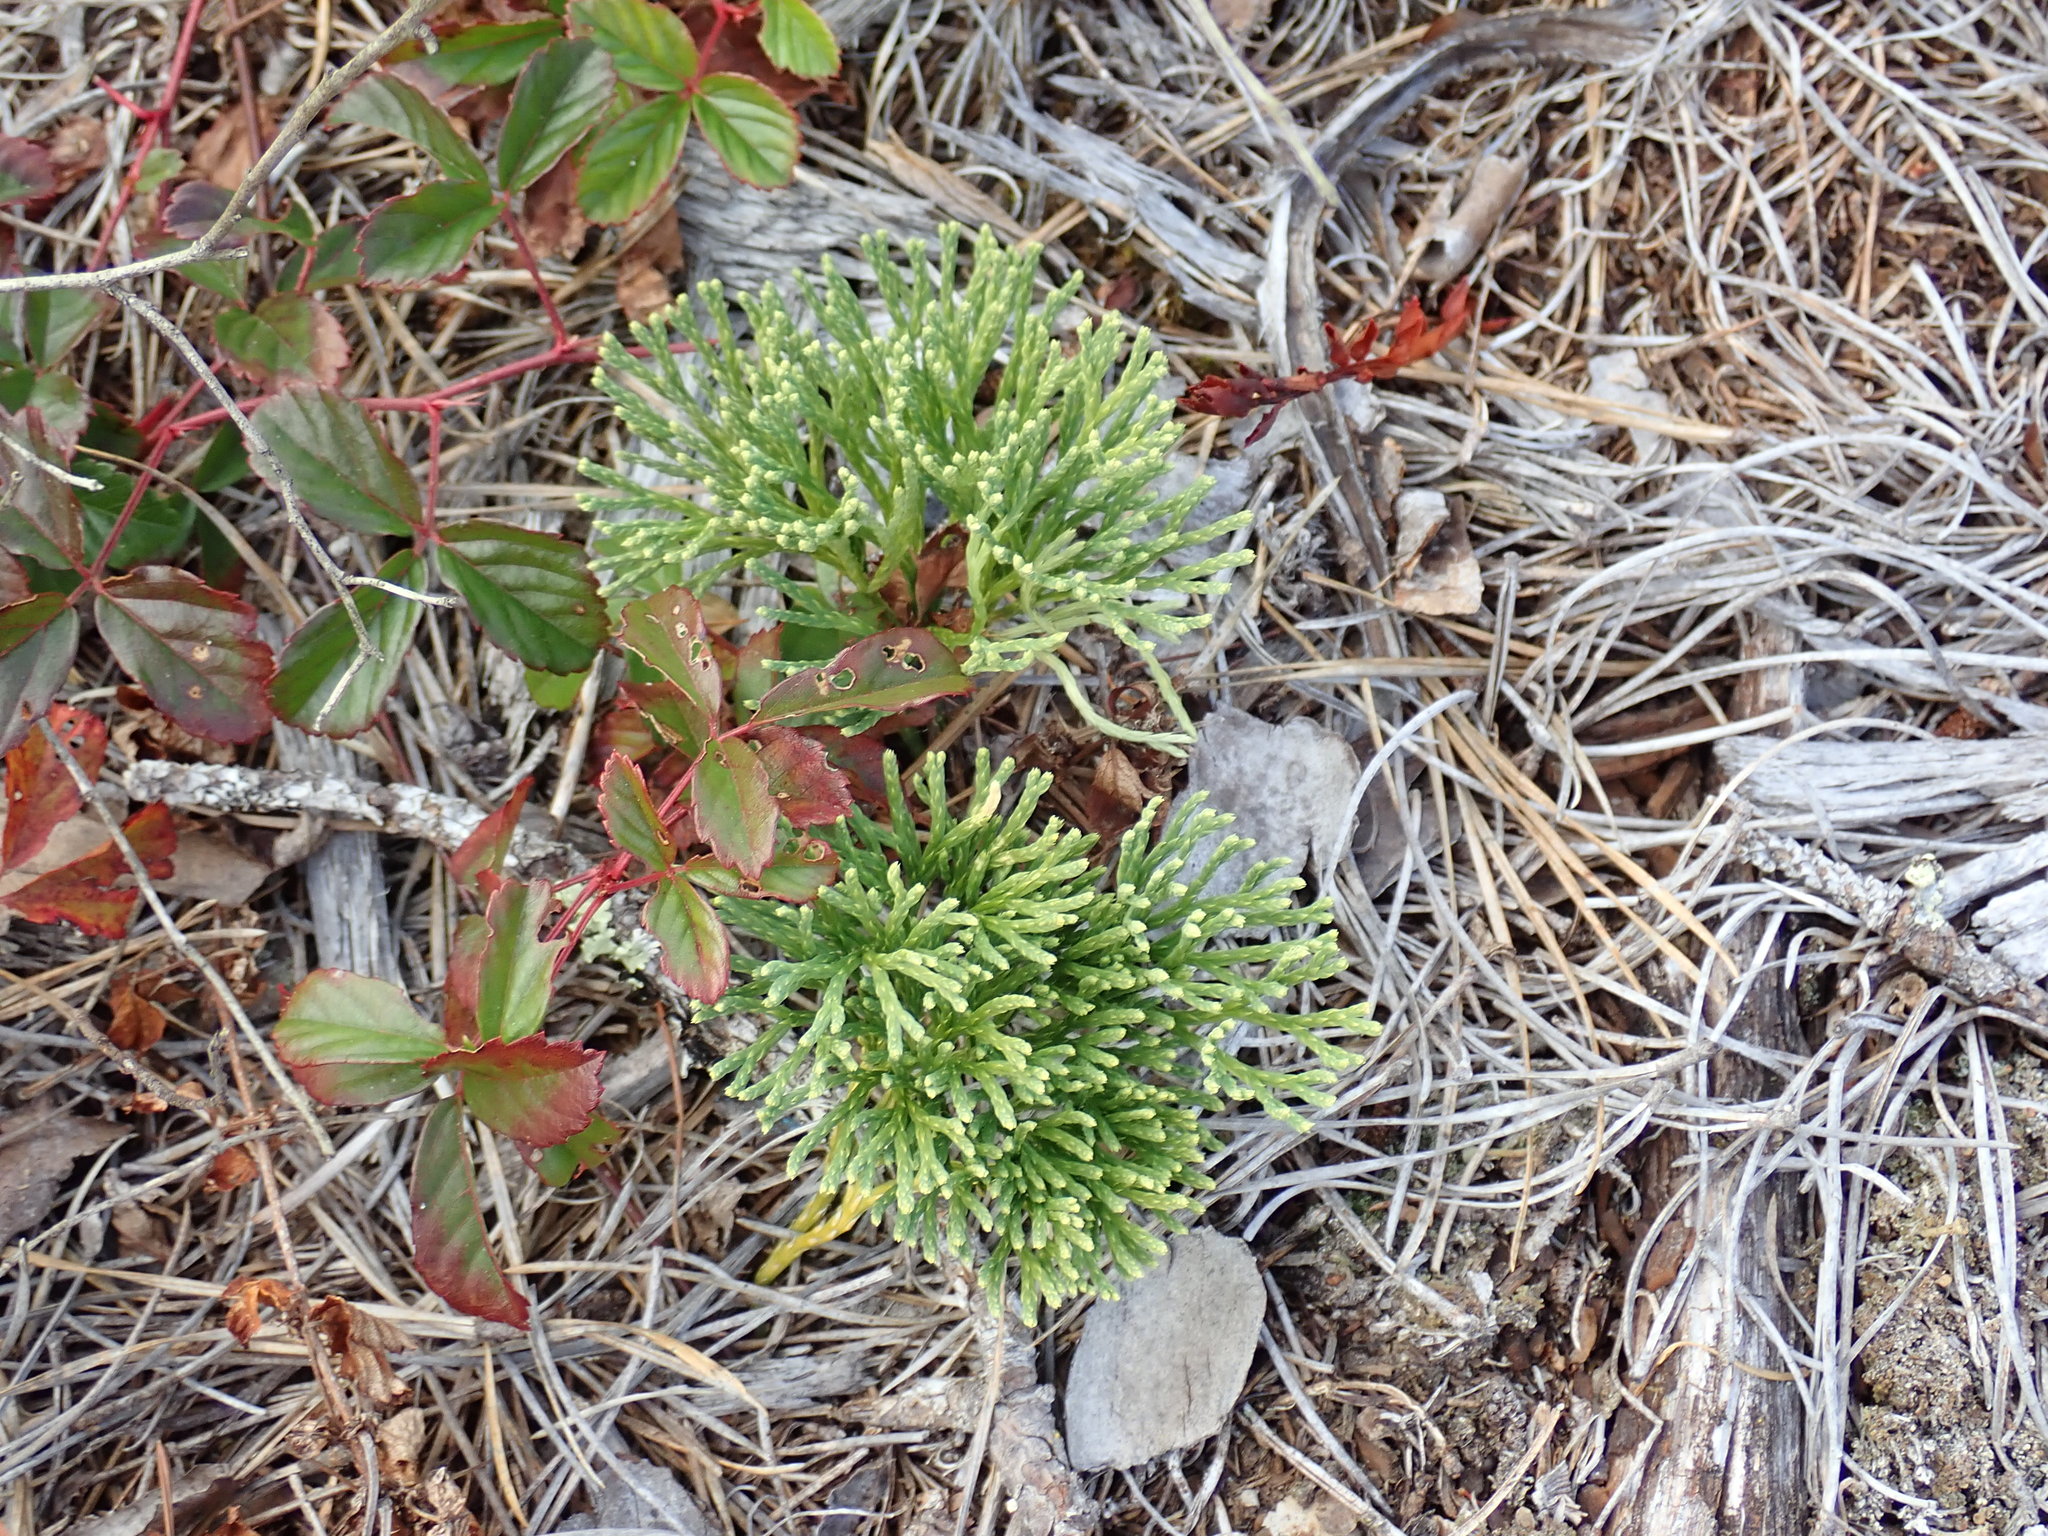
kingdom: Plantae
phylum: Tracheophyta
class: Lycopodiopsida
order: Lycopodiales
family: Lycopodiaceae
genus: Diphasiastrum
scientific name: Diphasiastrum tristachyum
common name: Blue ground-cedar
